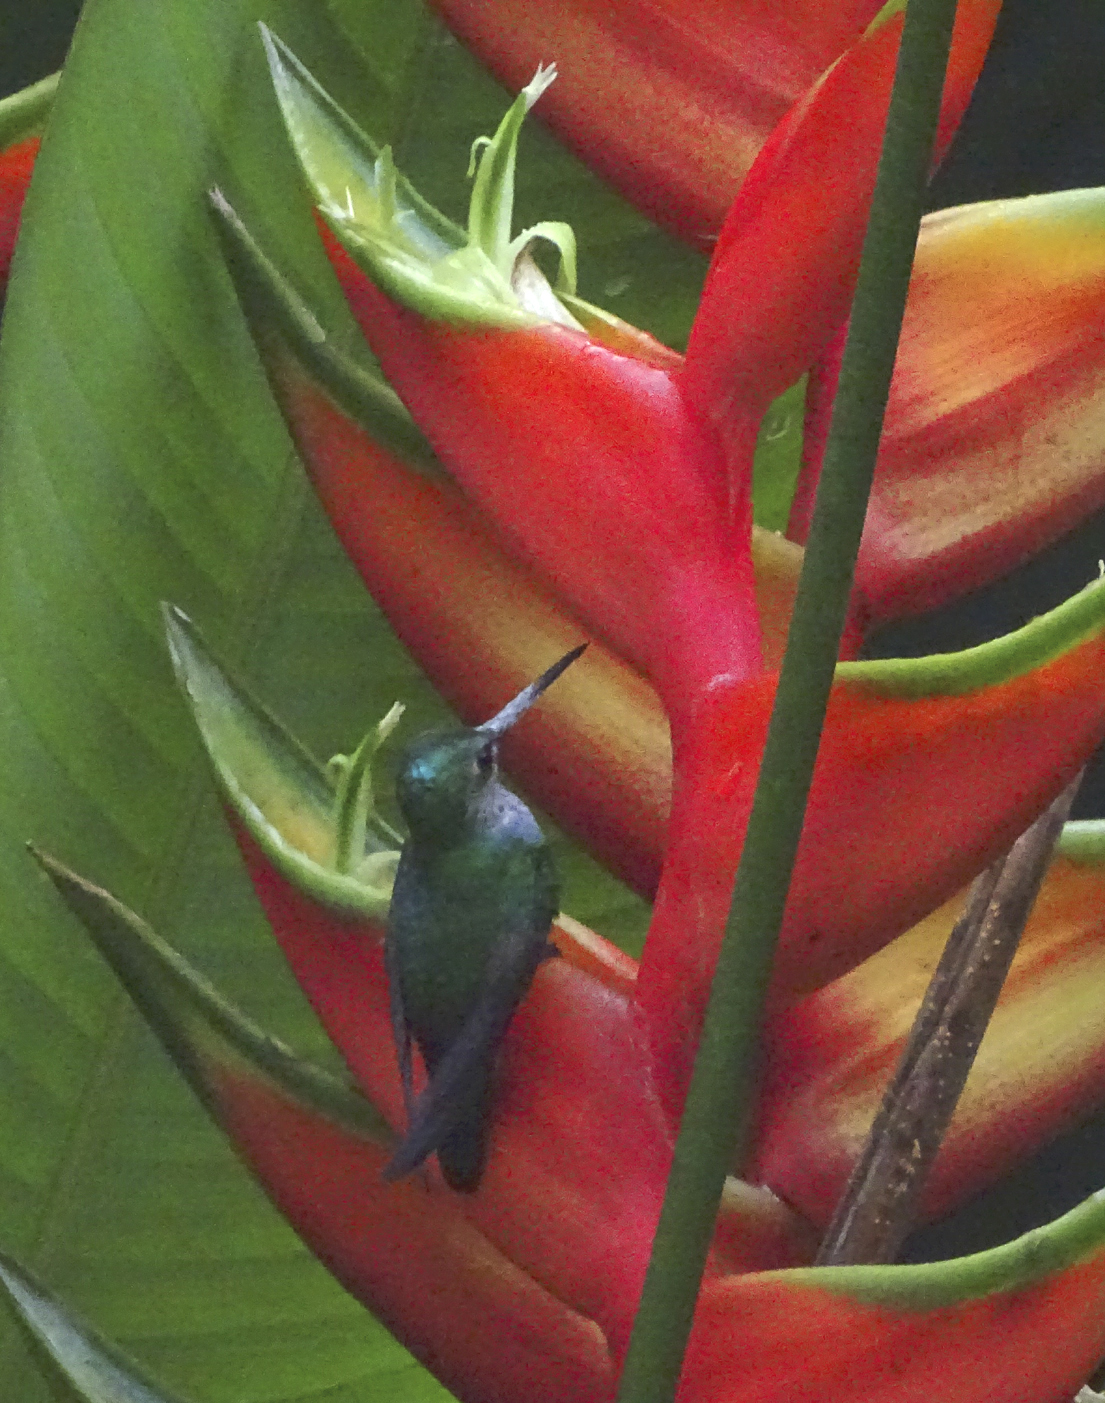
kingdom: Animalia
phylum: Chordata
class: Aves
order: Apodiformes
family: Trochilidae
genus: Polyerata
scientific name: Polyerata decora
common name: Charming hummingbird
